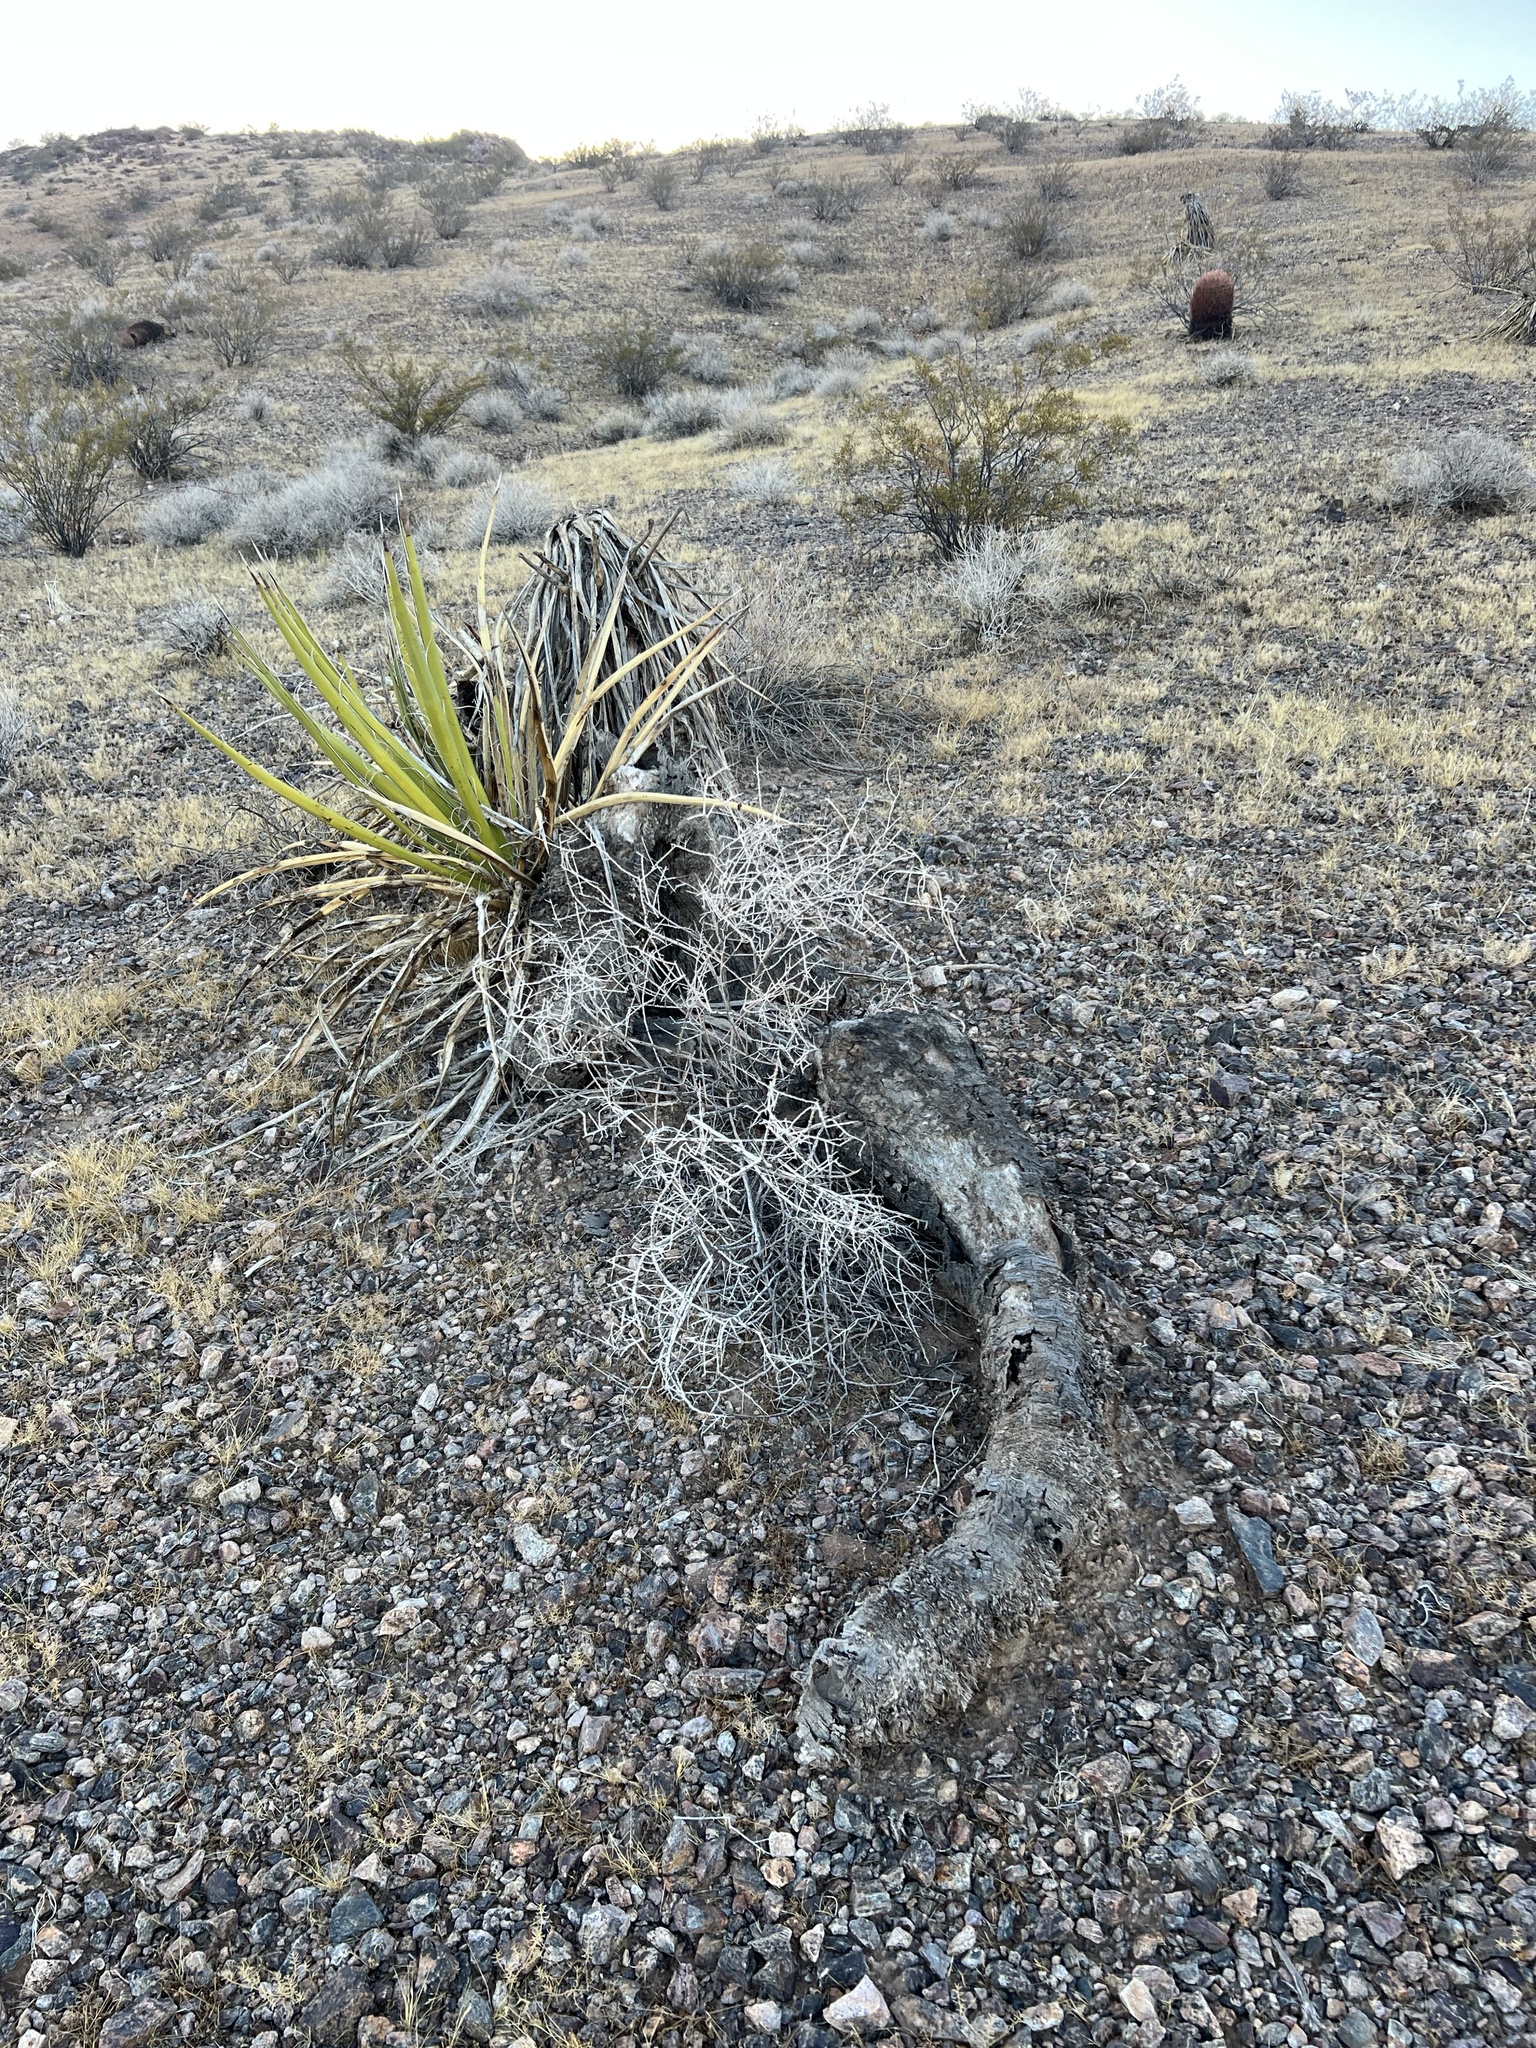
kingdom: Plantae
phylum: Tracheophyta
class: Liliopsida
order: Asparagales
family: Asparagaceae
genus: Yucca
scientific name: Yucca schidigera
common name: Mojave yucca
